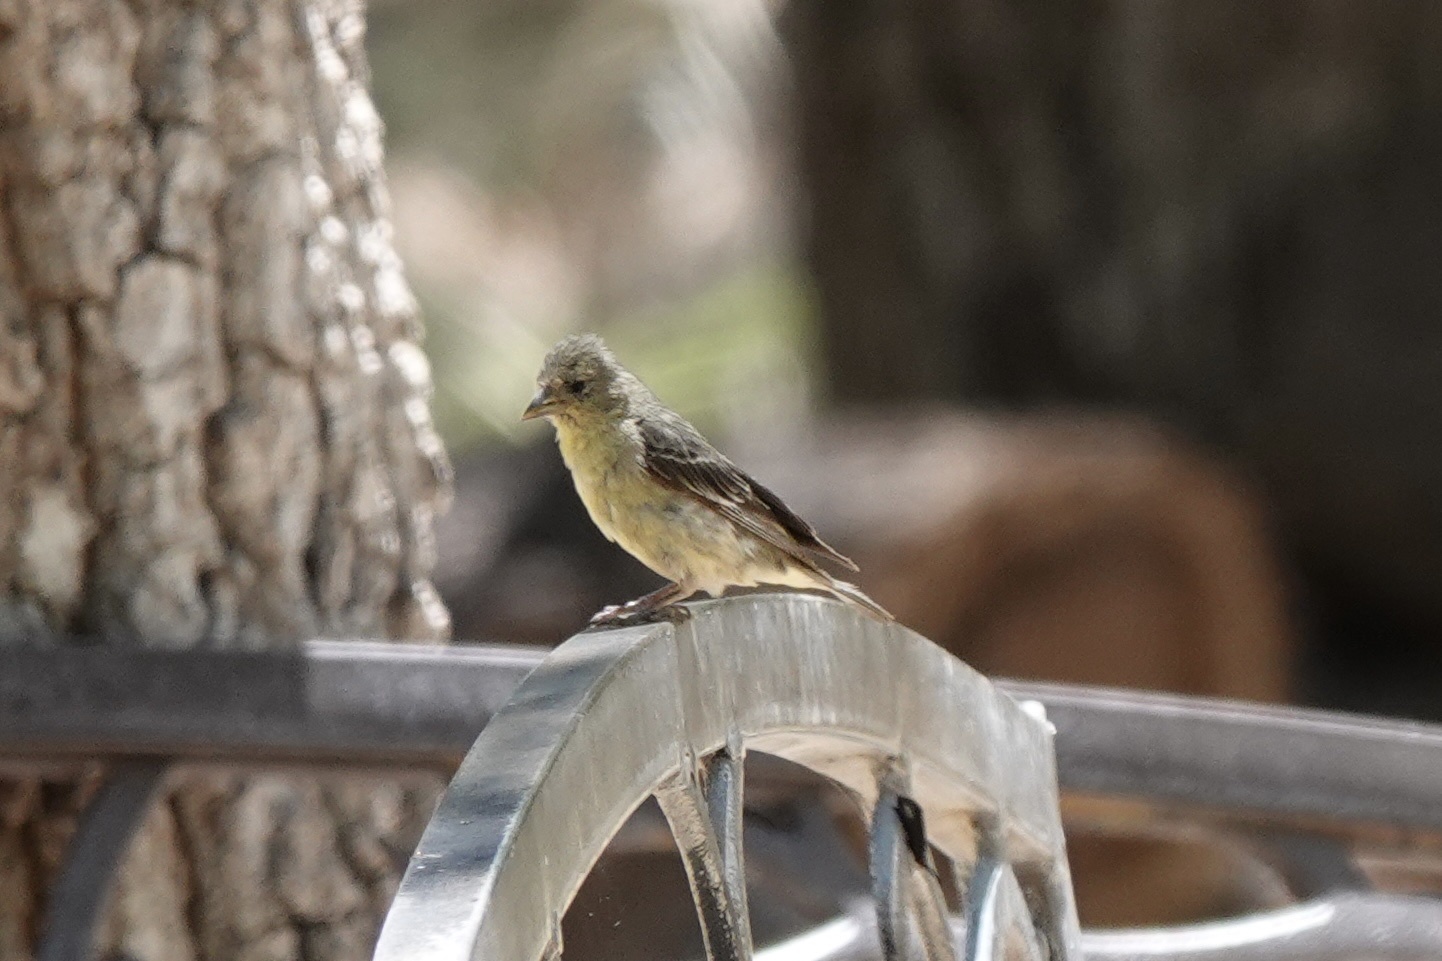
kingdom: Animalia
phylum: Chordata
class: Aves
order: Passeriformes
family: Fringillidae
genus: Spinus
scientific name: Spinus psaltria
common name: Lesser goldfinch
